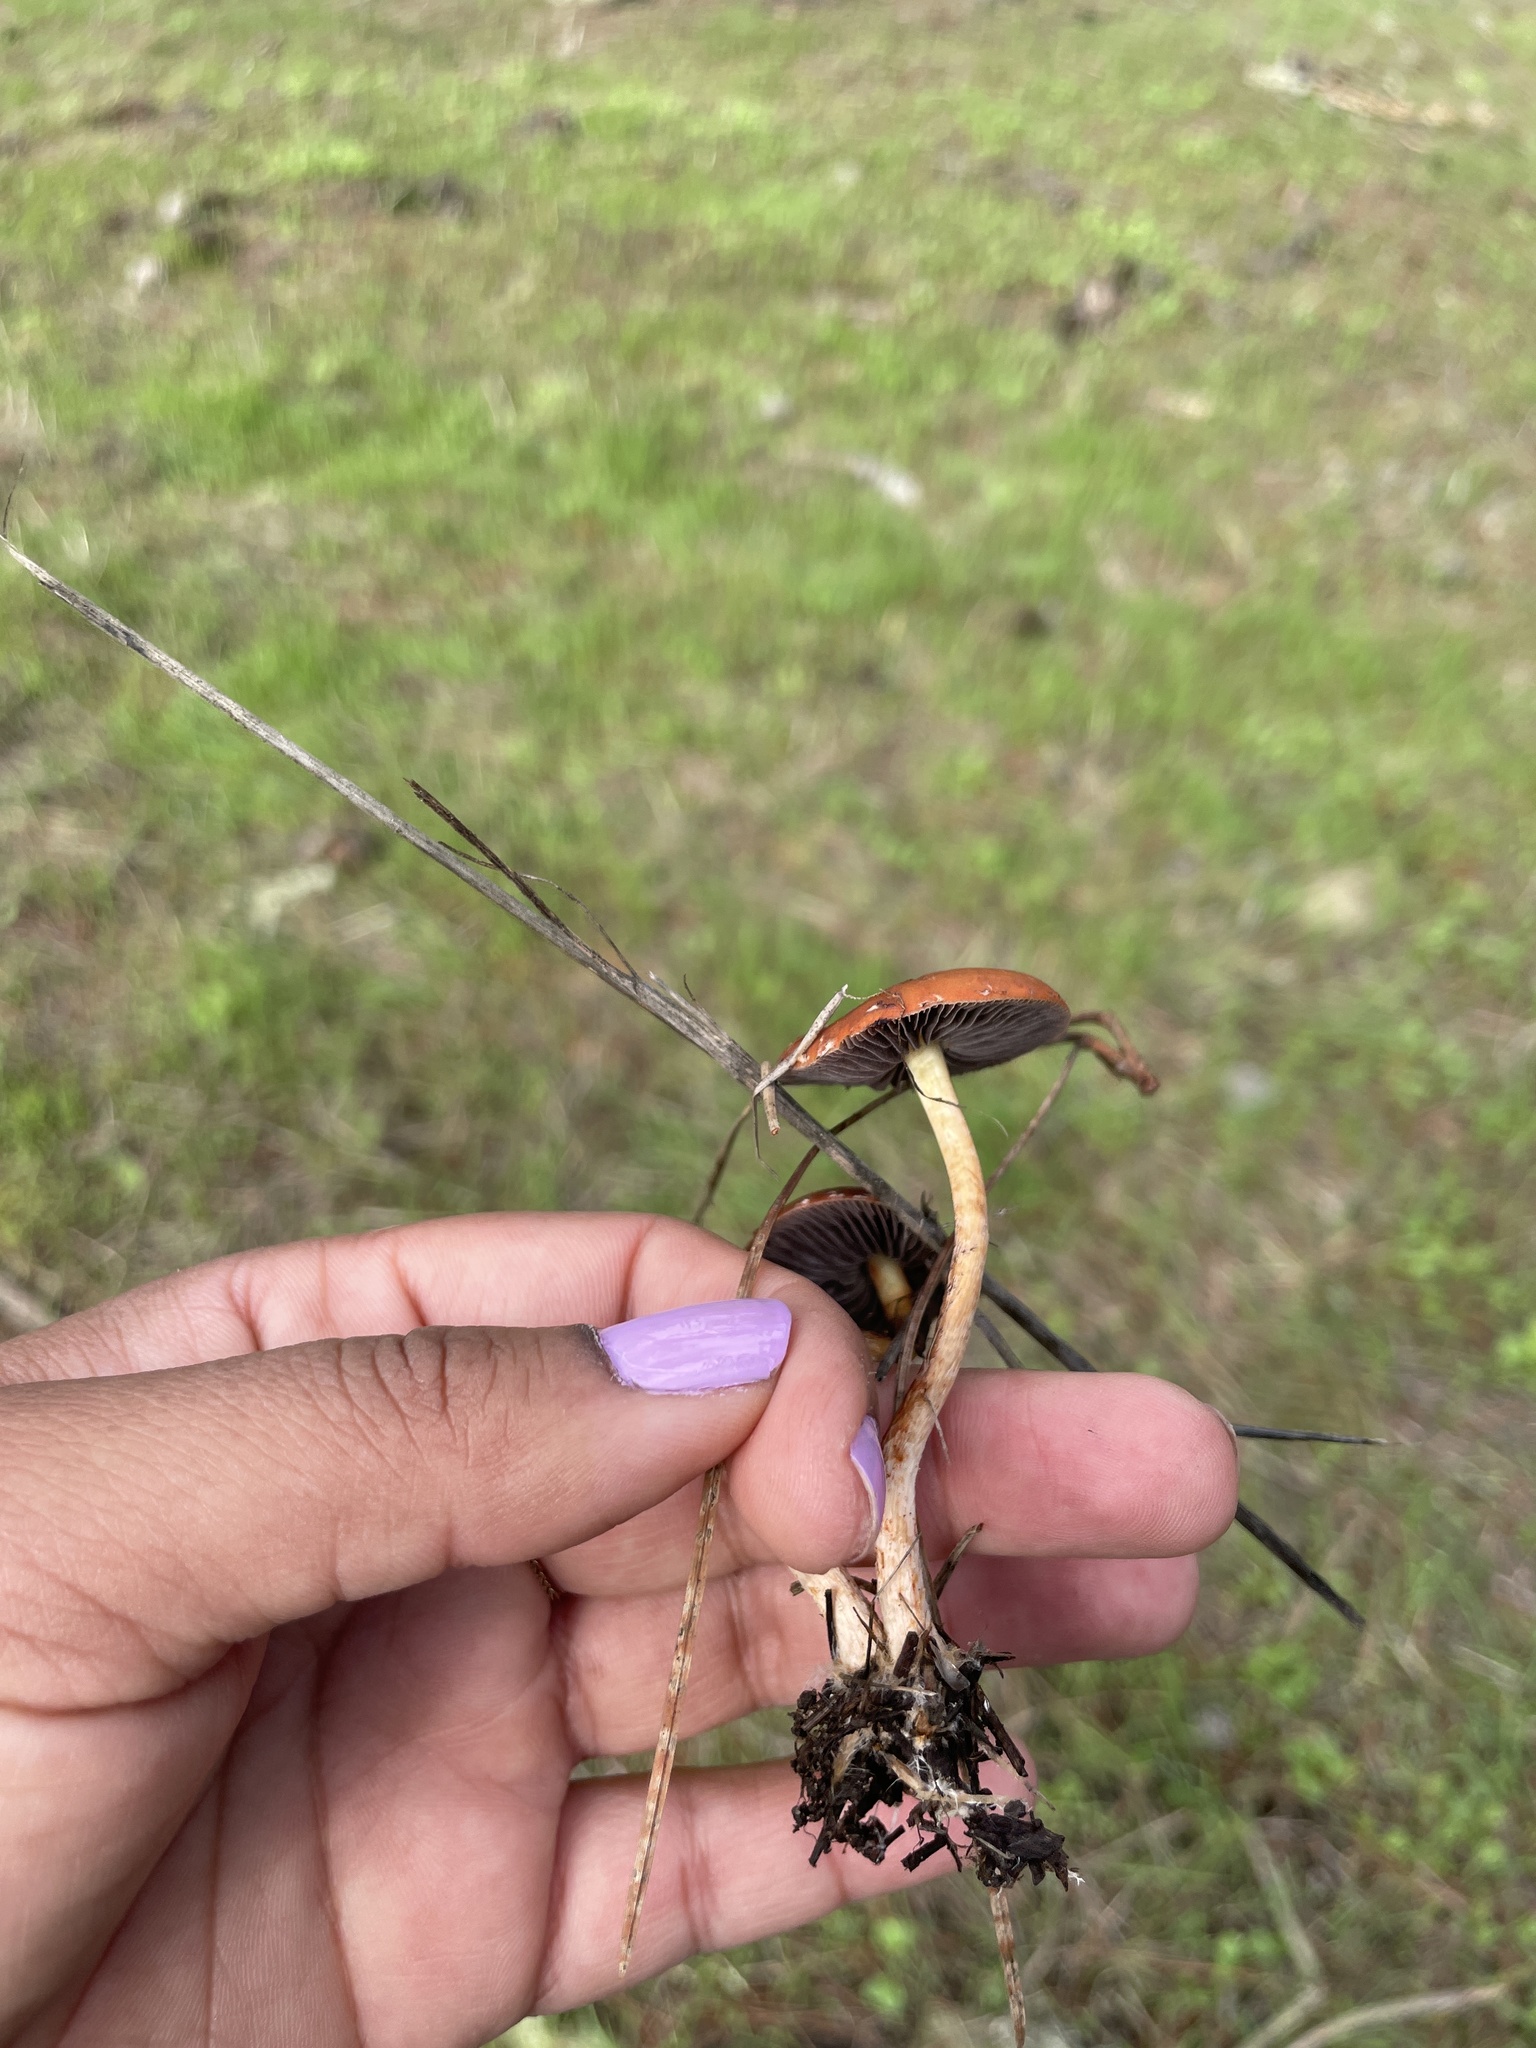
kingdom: Fungi
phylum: Basidiomycota
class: Agaricomycetes
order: Agaricales
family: Strophariaceae
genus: Leratiomyces
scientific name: Leratiomyces ceres
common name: Redlead roundhead
